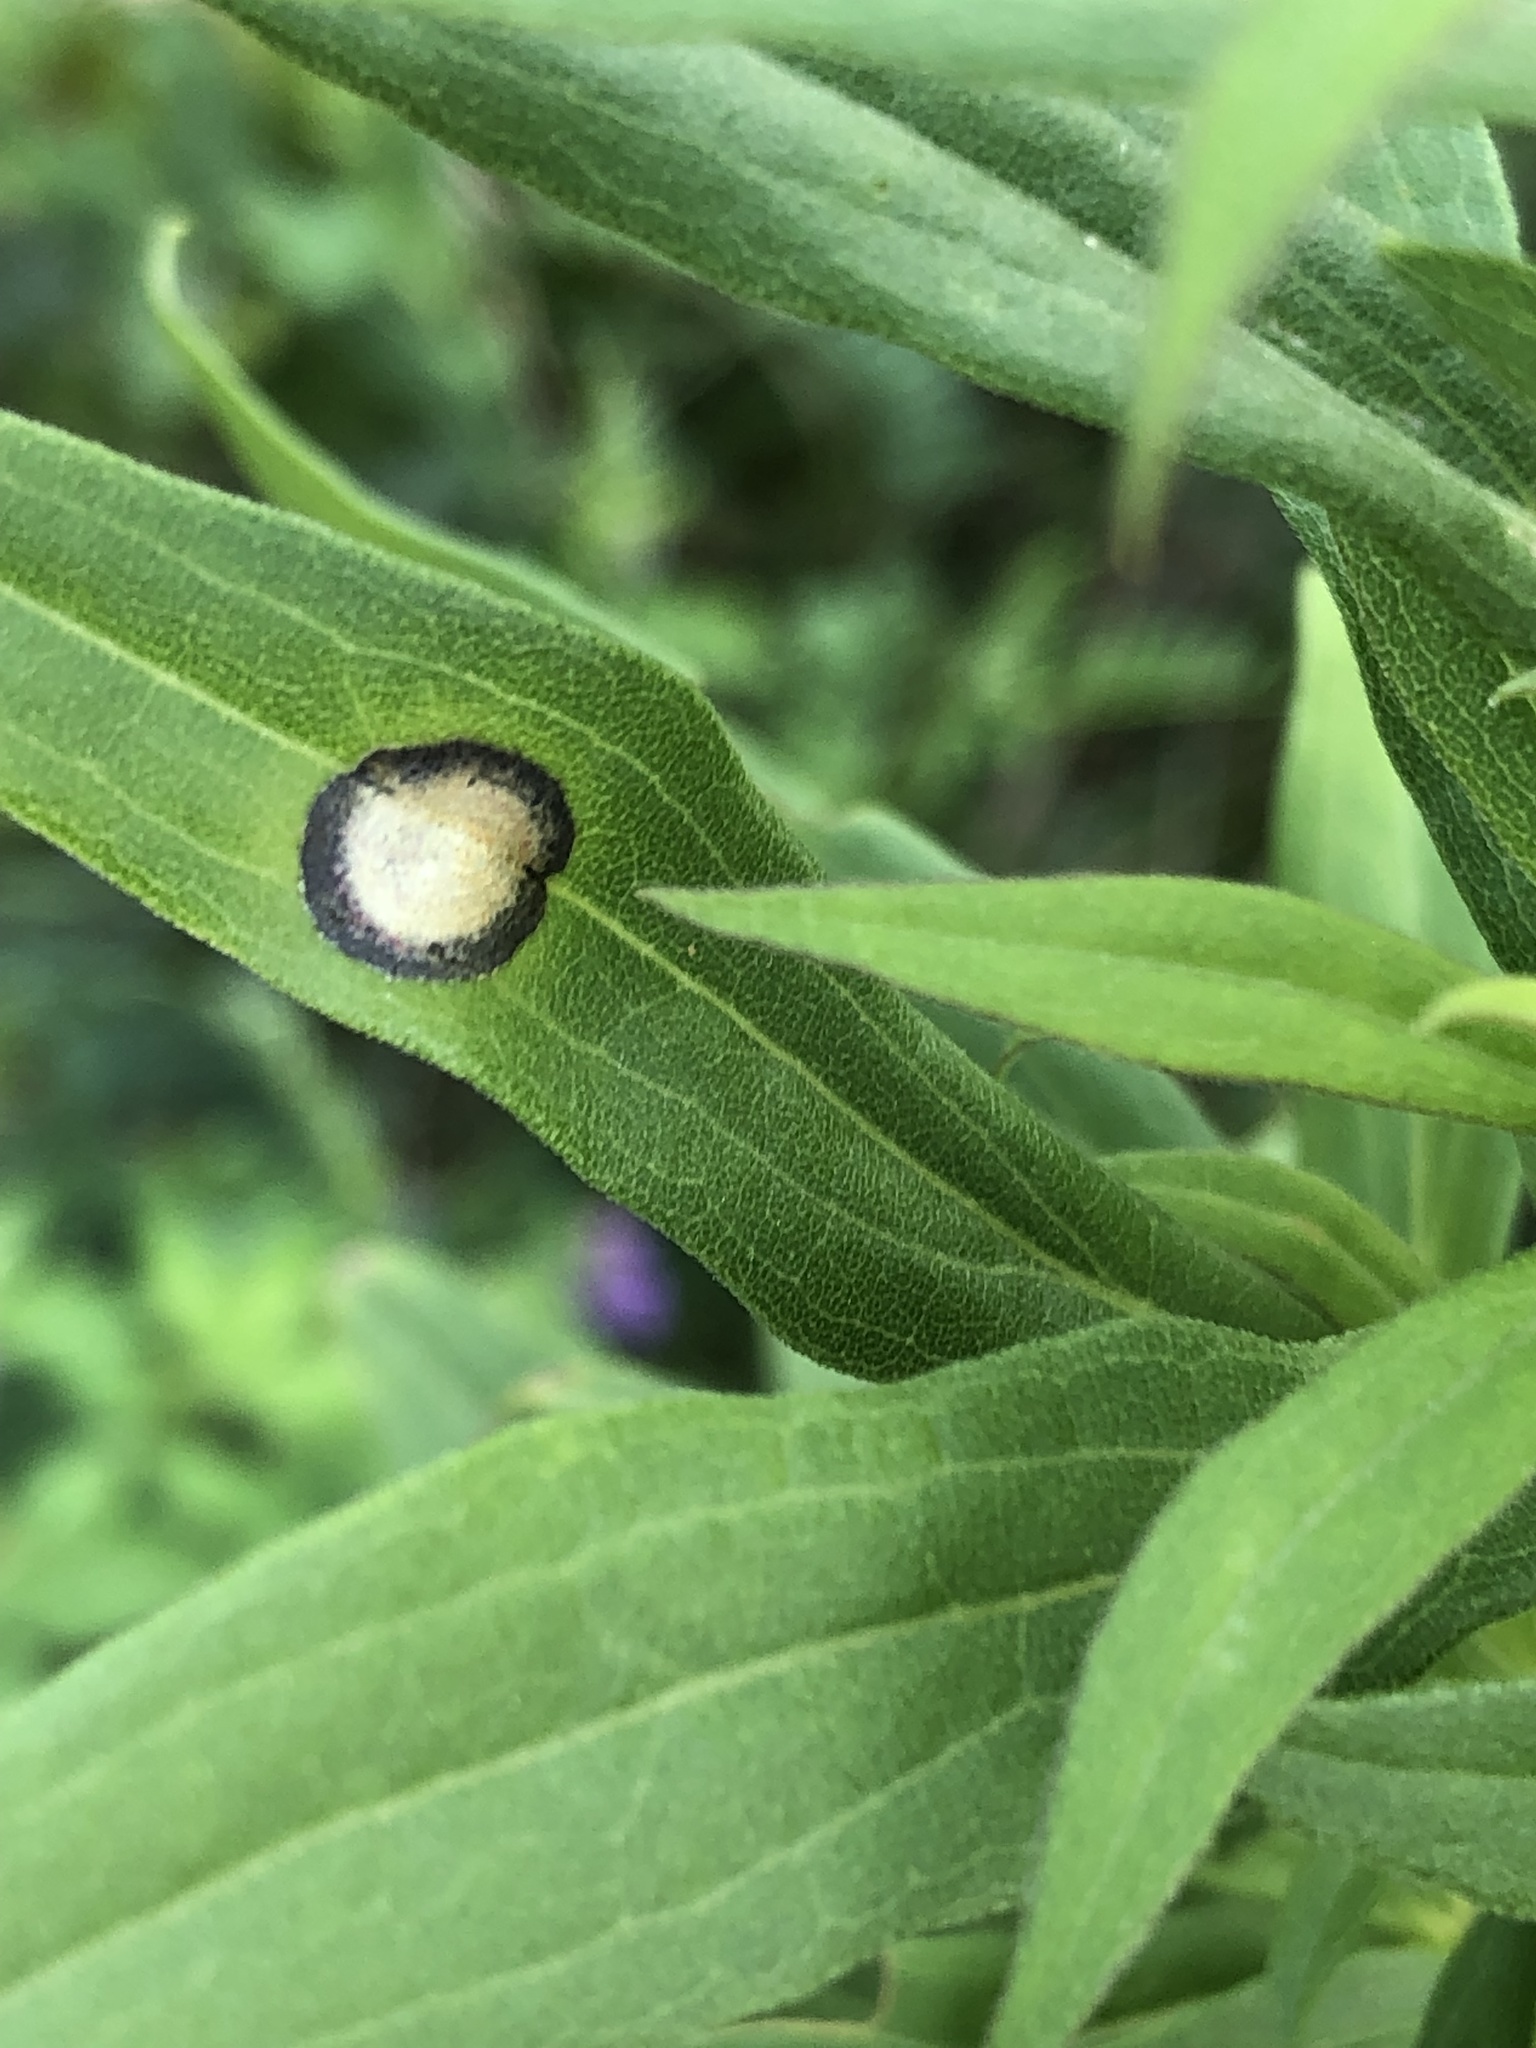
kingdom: Animalia
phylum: Arthropoda
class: Insecta
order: Diptera
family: Cecidomyiidae
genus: Asteromyia
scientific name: Asteromyia carbonifera
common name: Carbonifera goldenrod gall midge
